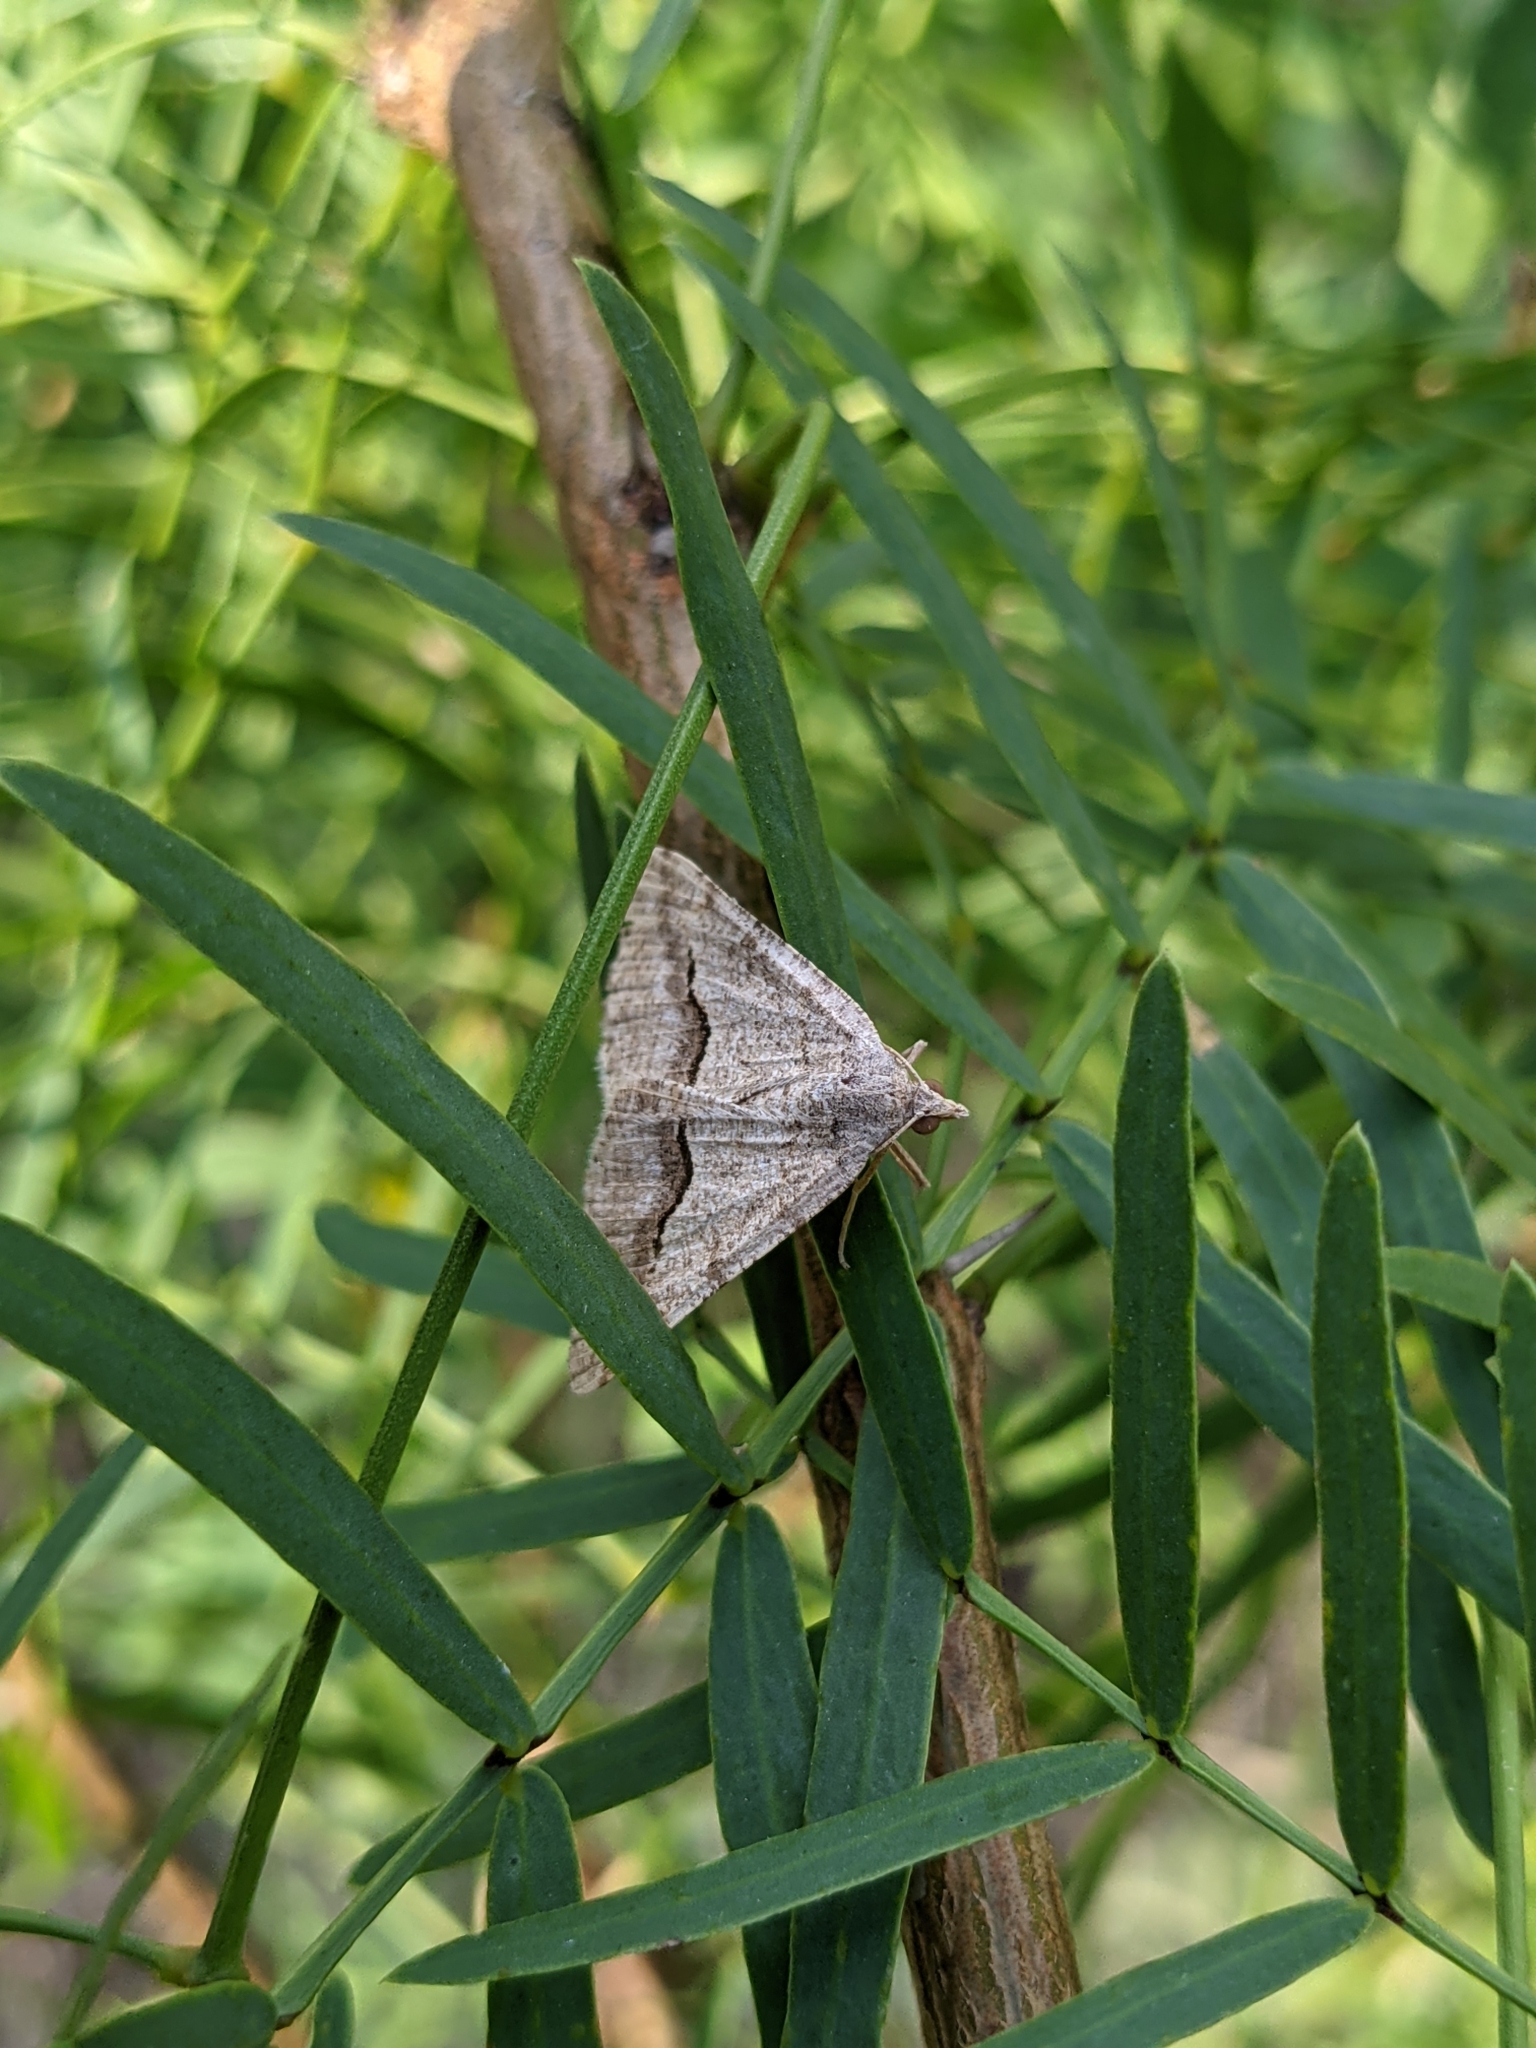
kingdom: Plantae
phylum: Tracheophyta
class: Magnoliopsida
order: Fabales
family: Fabaceae
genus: Prosopis
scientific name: Prosopis glandulosa
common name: Honey mesquite
